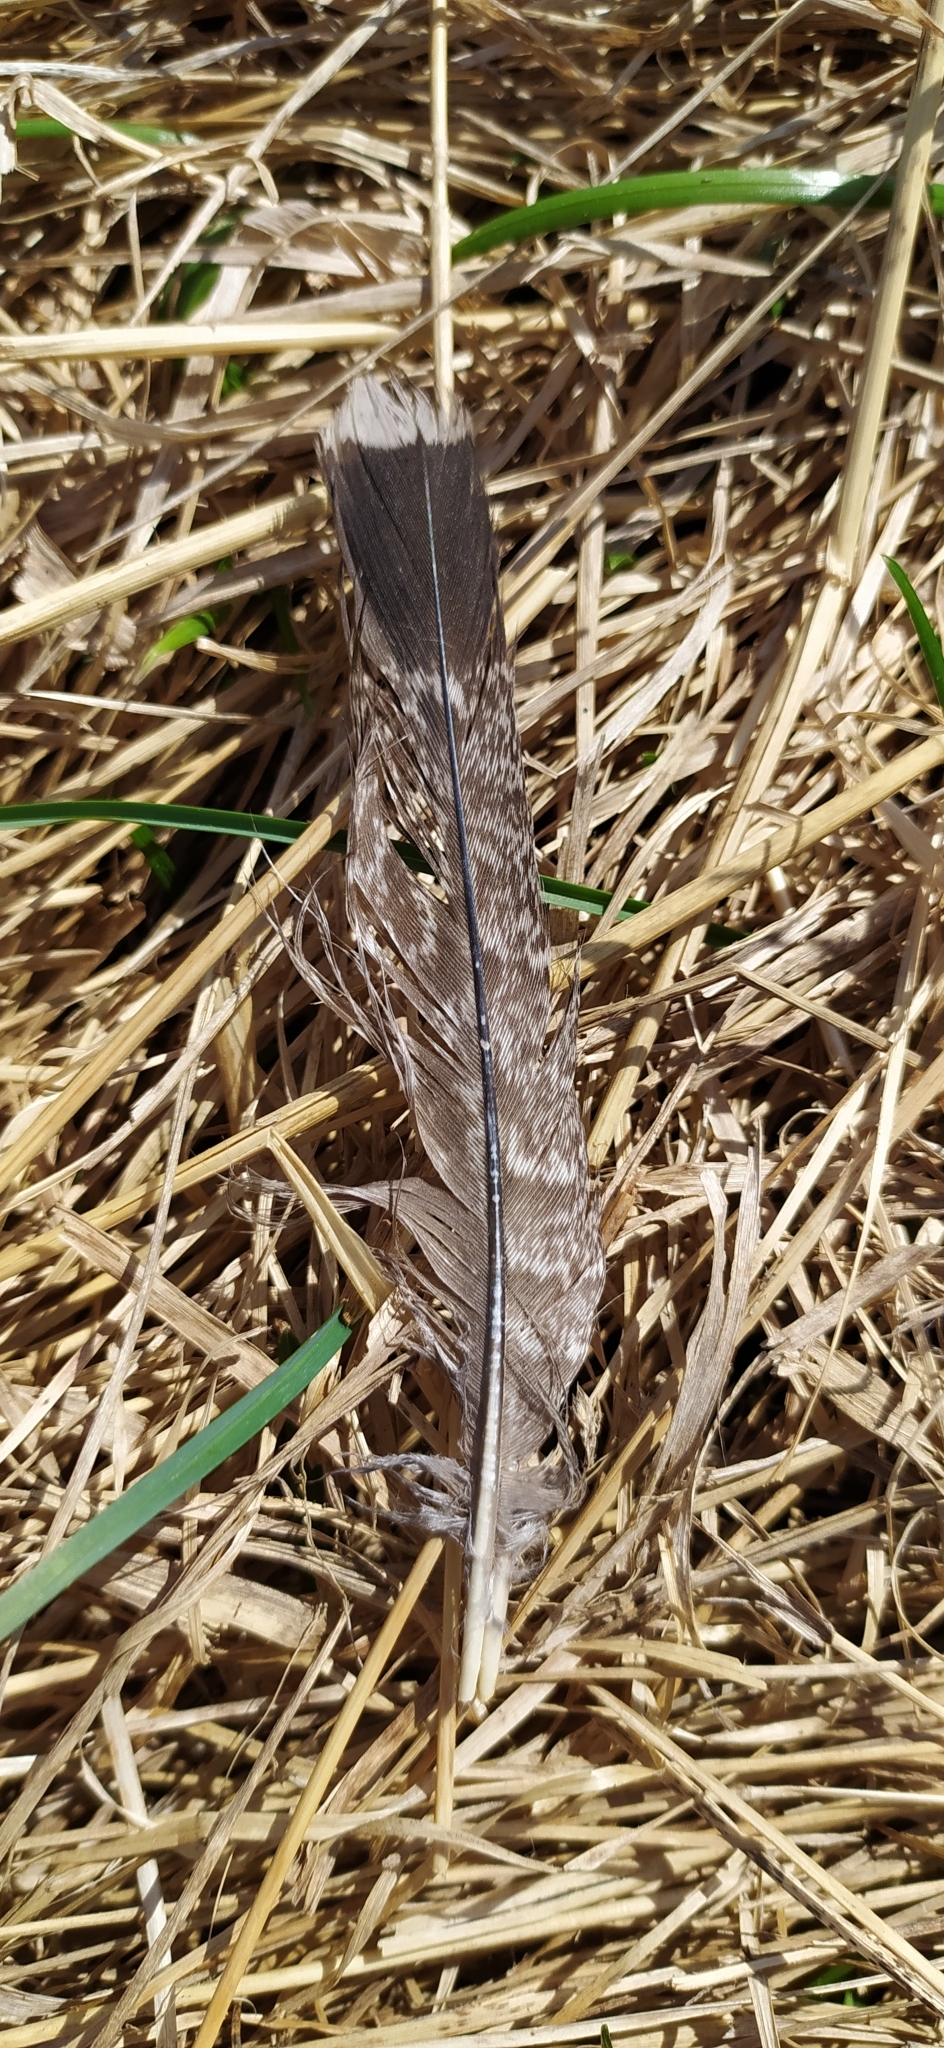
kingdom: Animalia
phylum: Chordata
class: Aves
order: Galliformes
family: Phasianidae
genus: Tetrastes
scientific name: Tetrastes bonasia
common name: Hazel grouse
